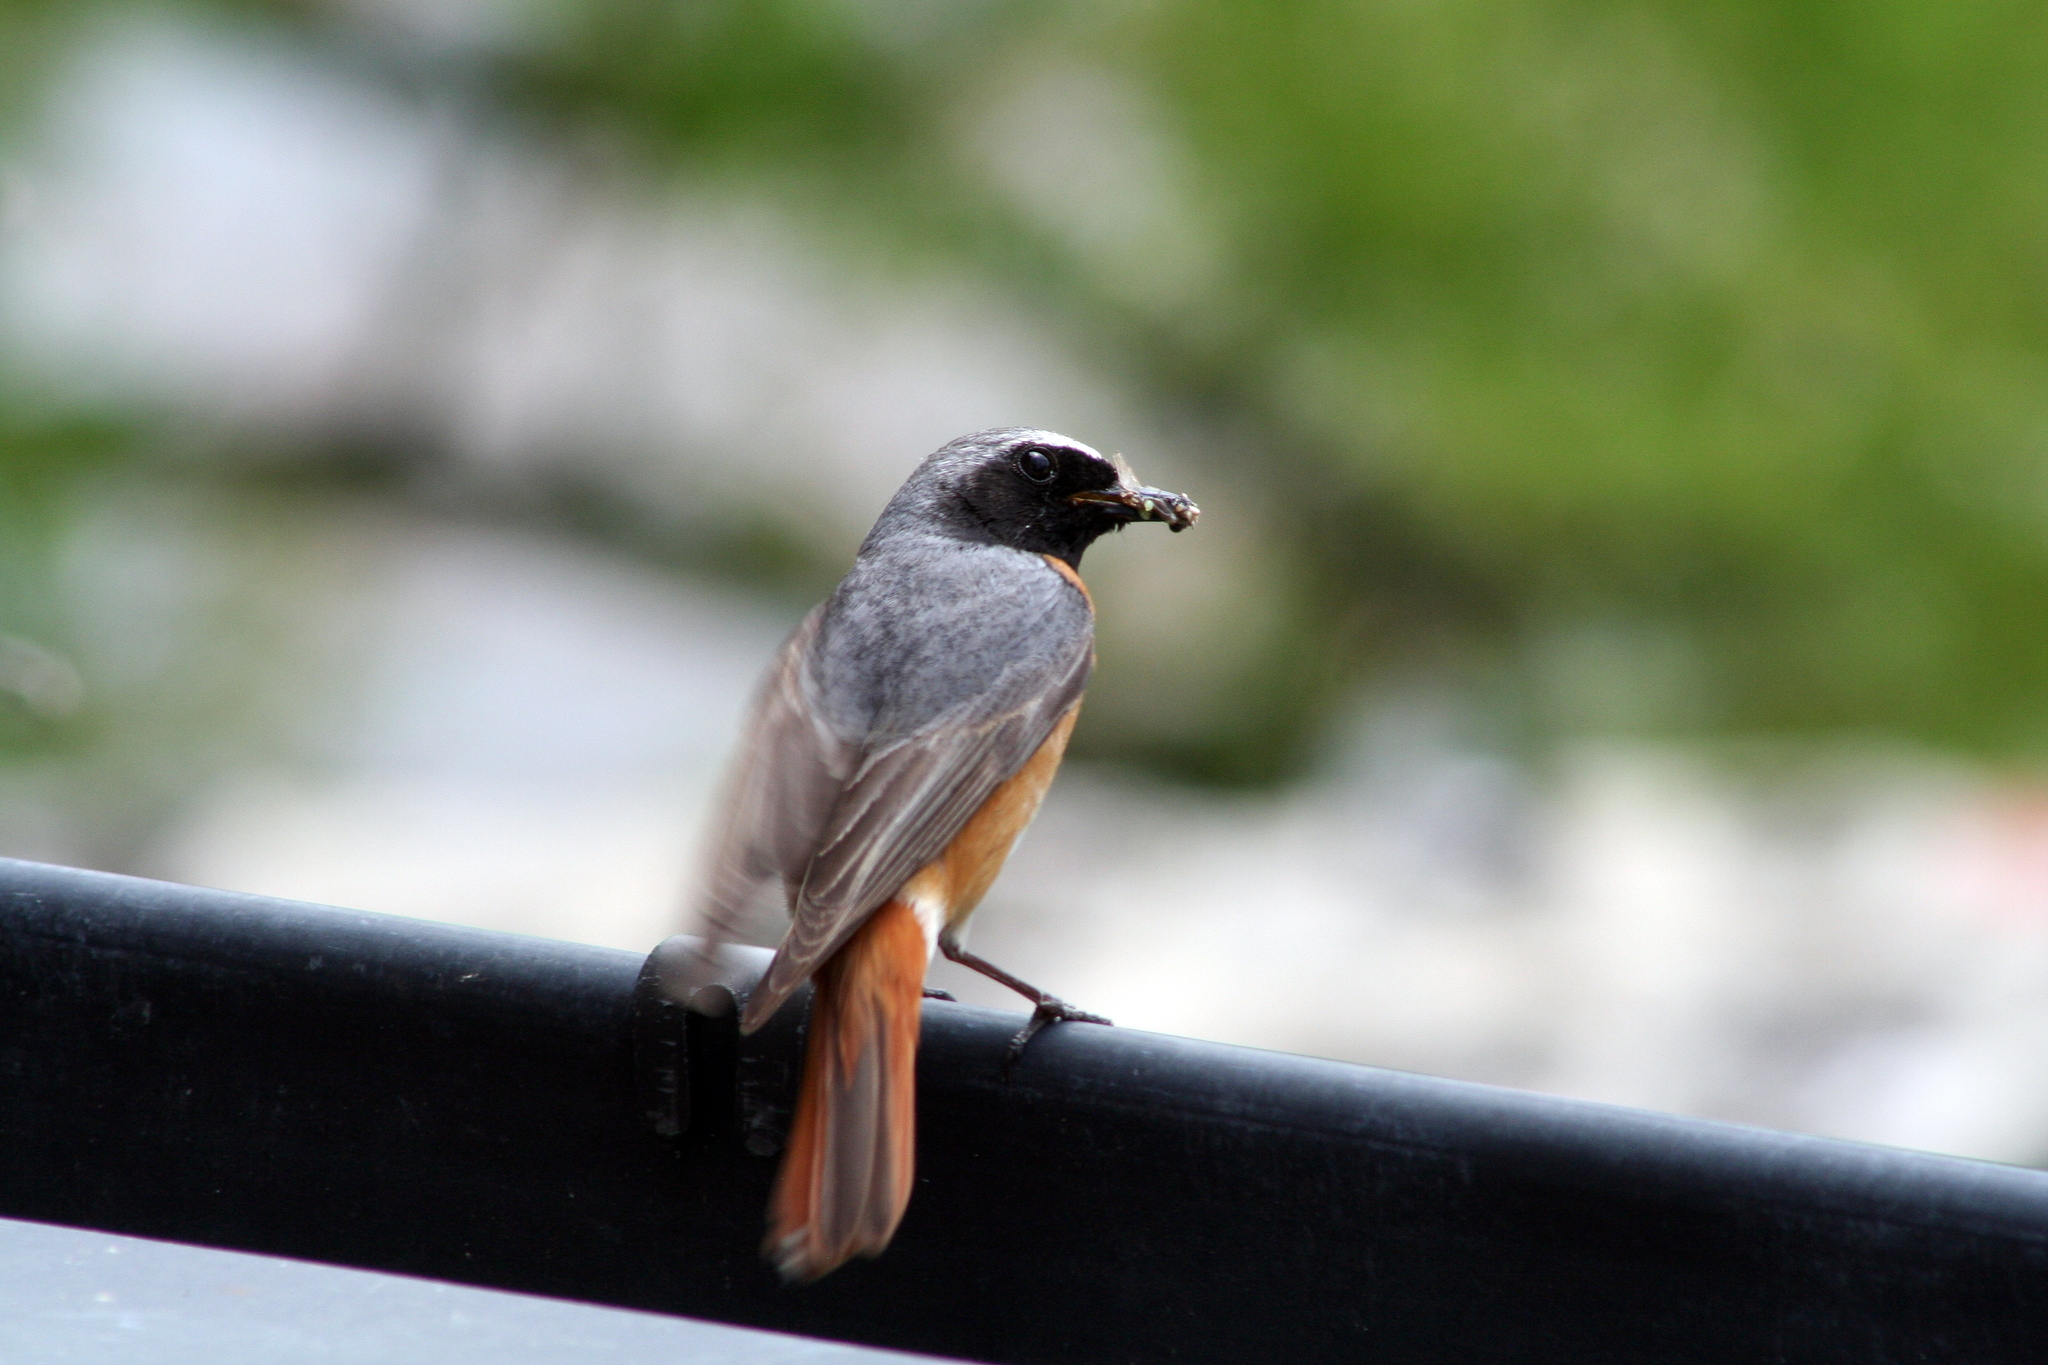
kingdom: Animalia
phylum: Chordata
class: Aves
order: Passeriformes
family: Muscicapidae
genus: Phoenicurus
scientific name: Phoenicurus phoenicurus
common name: Common redstart
